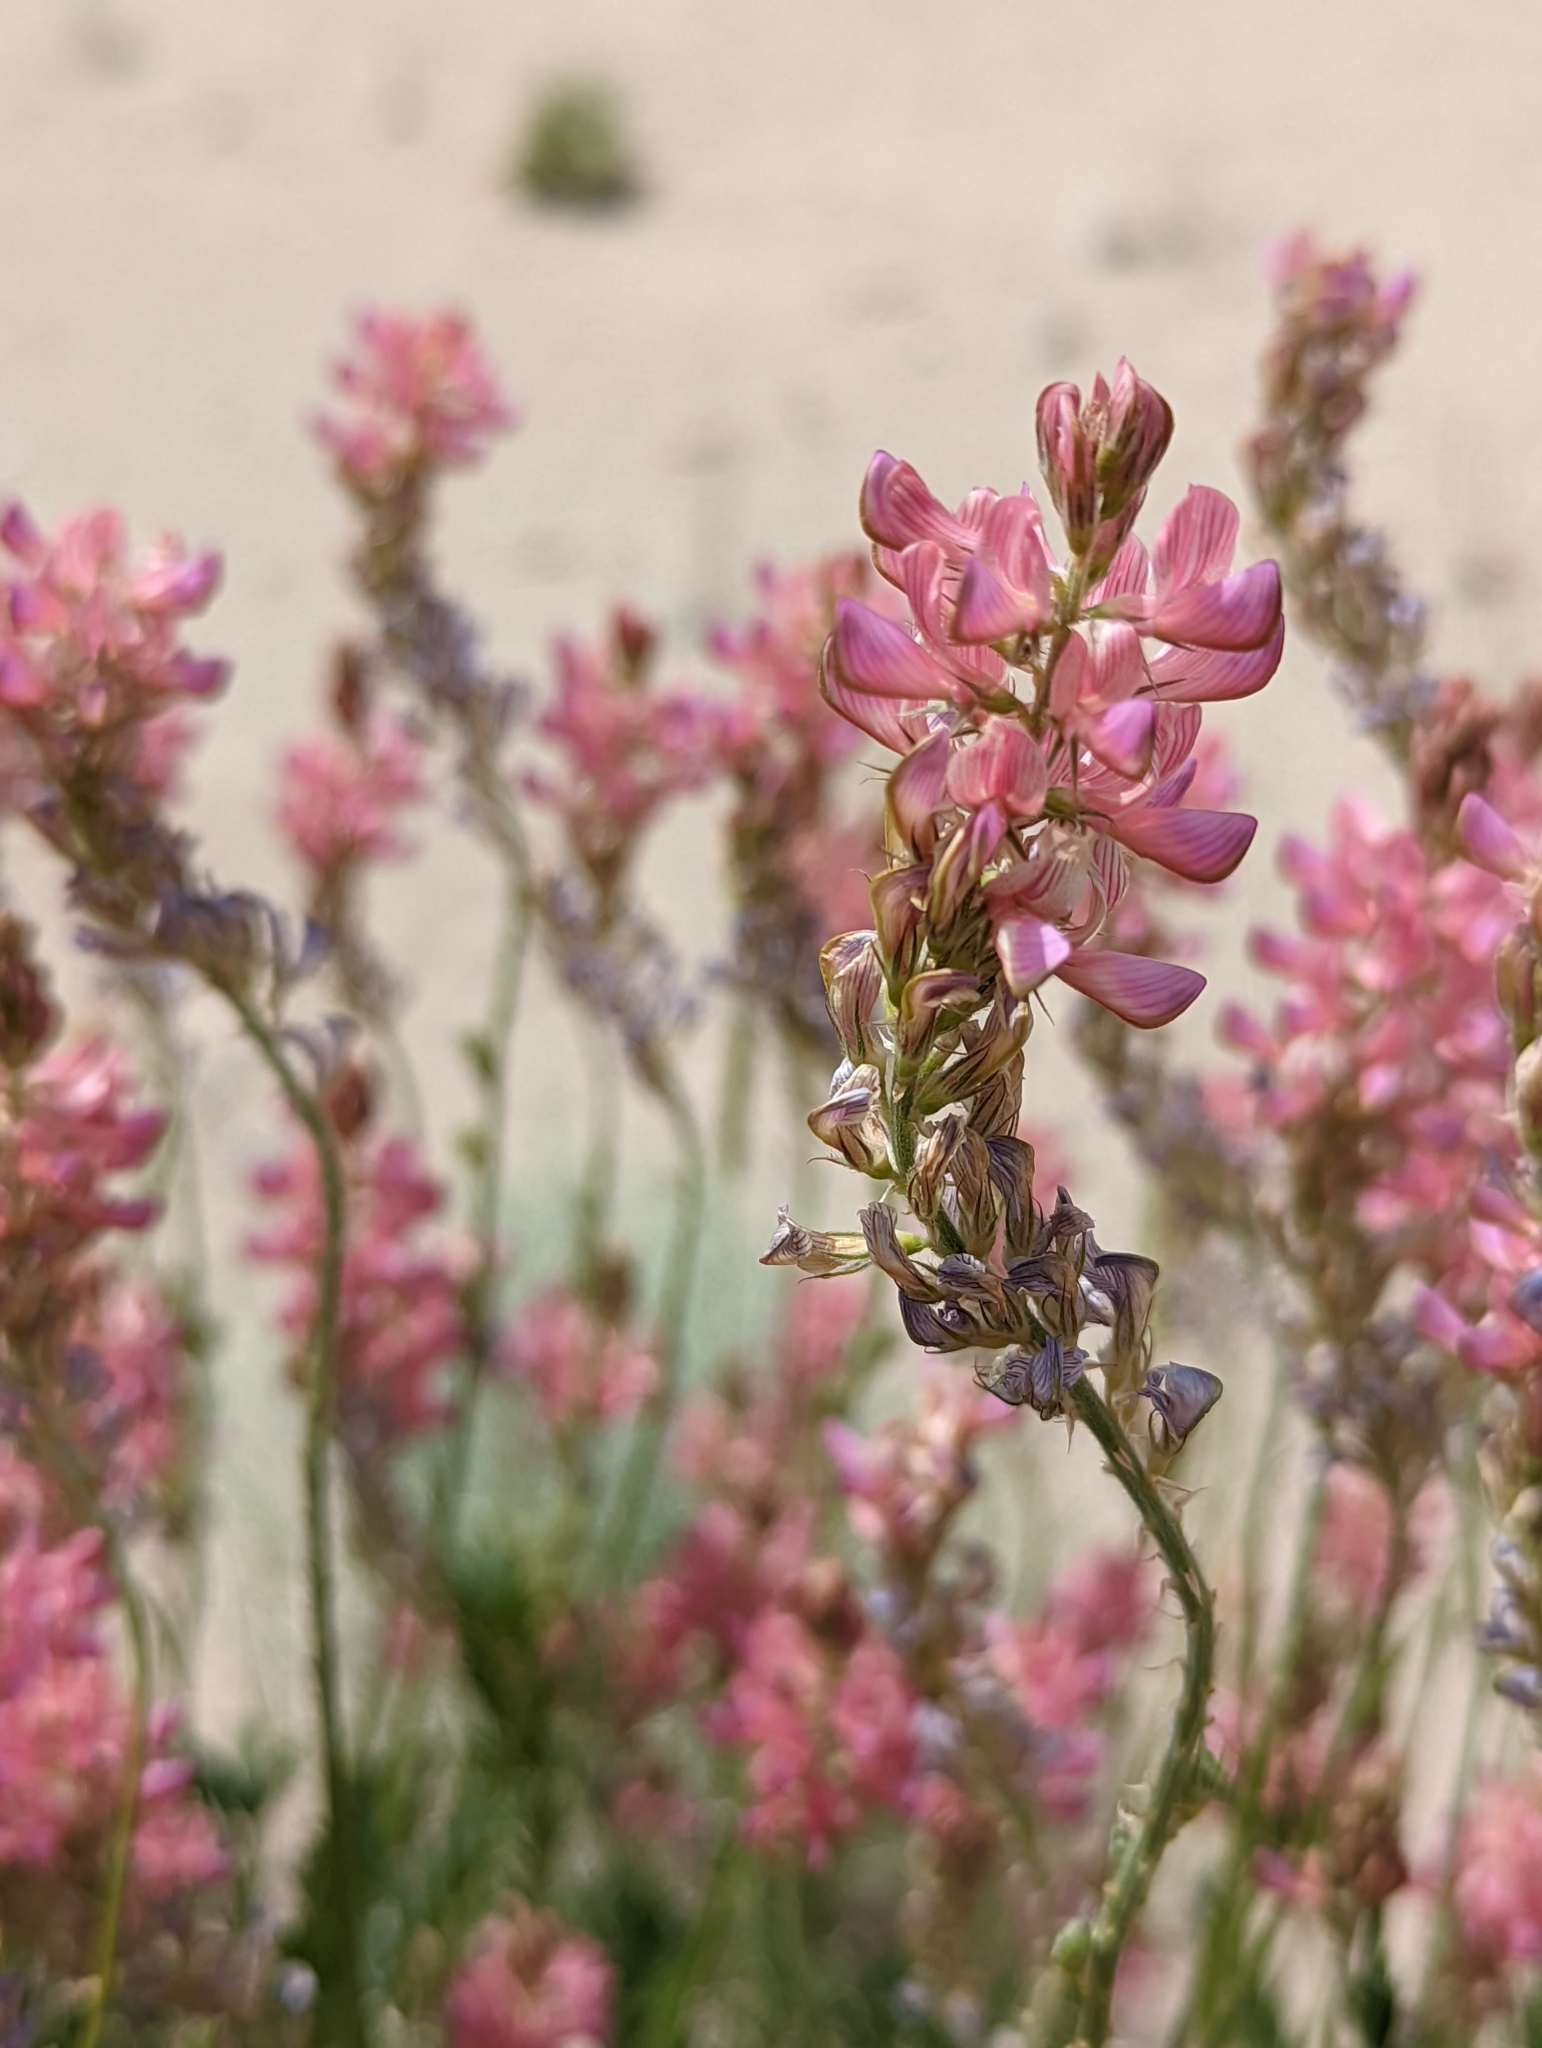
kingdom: Plantae
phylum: Tracheophyta
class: Magnoliopsida
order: Fabales
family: Fabaceae
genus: Onobrychis
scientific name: Onobrychis viciifolia
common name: Sainfoin
